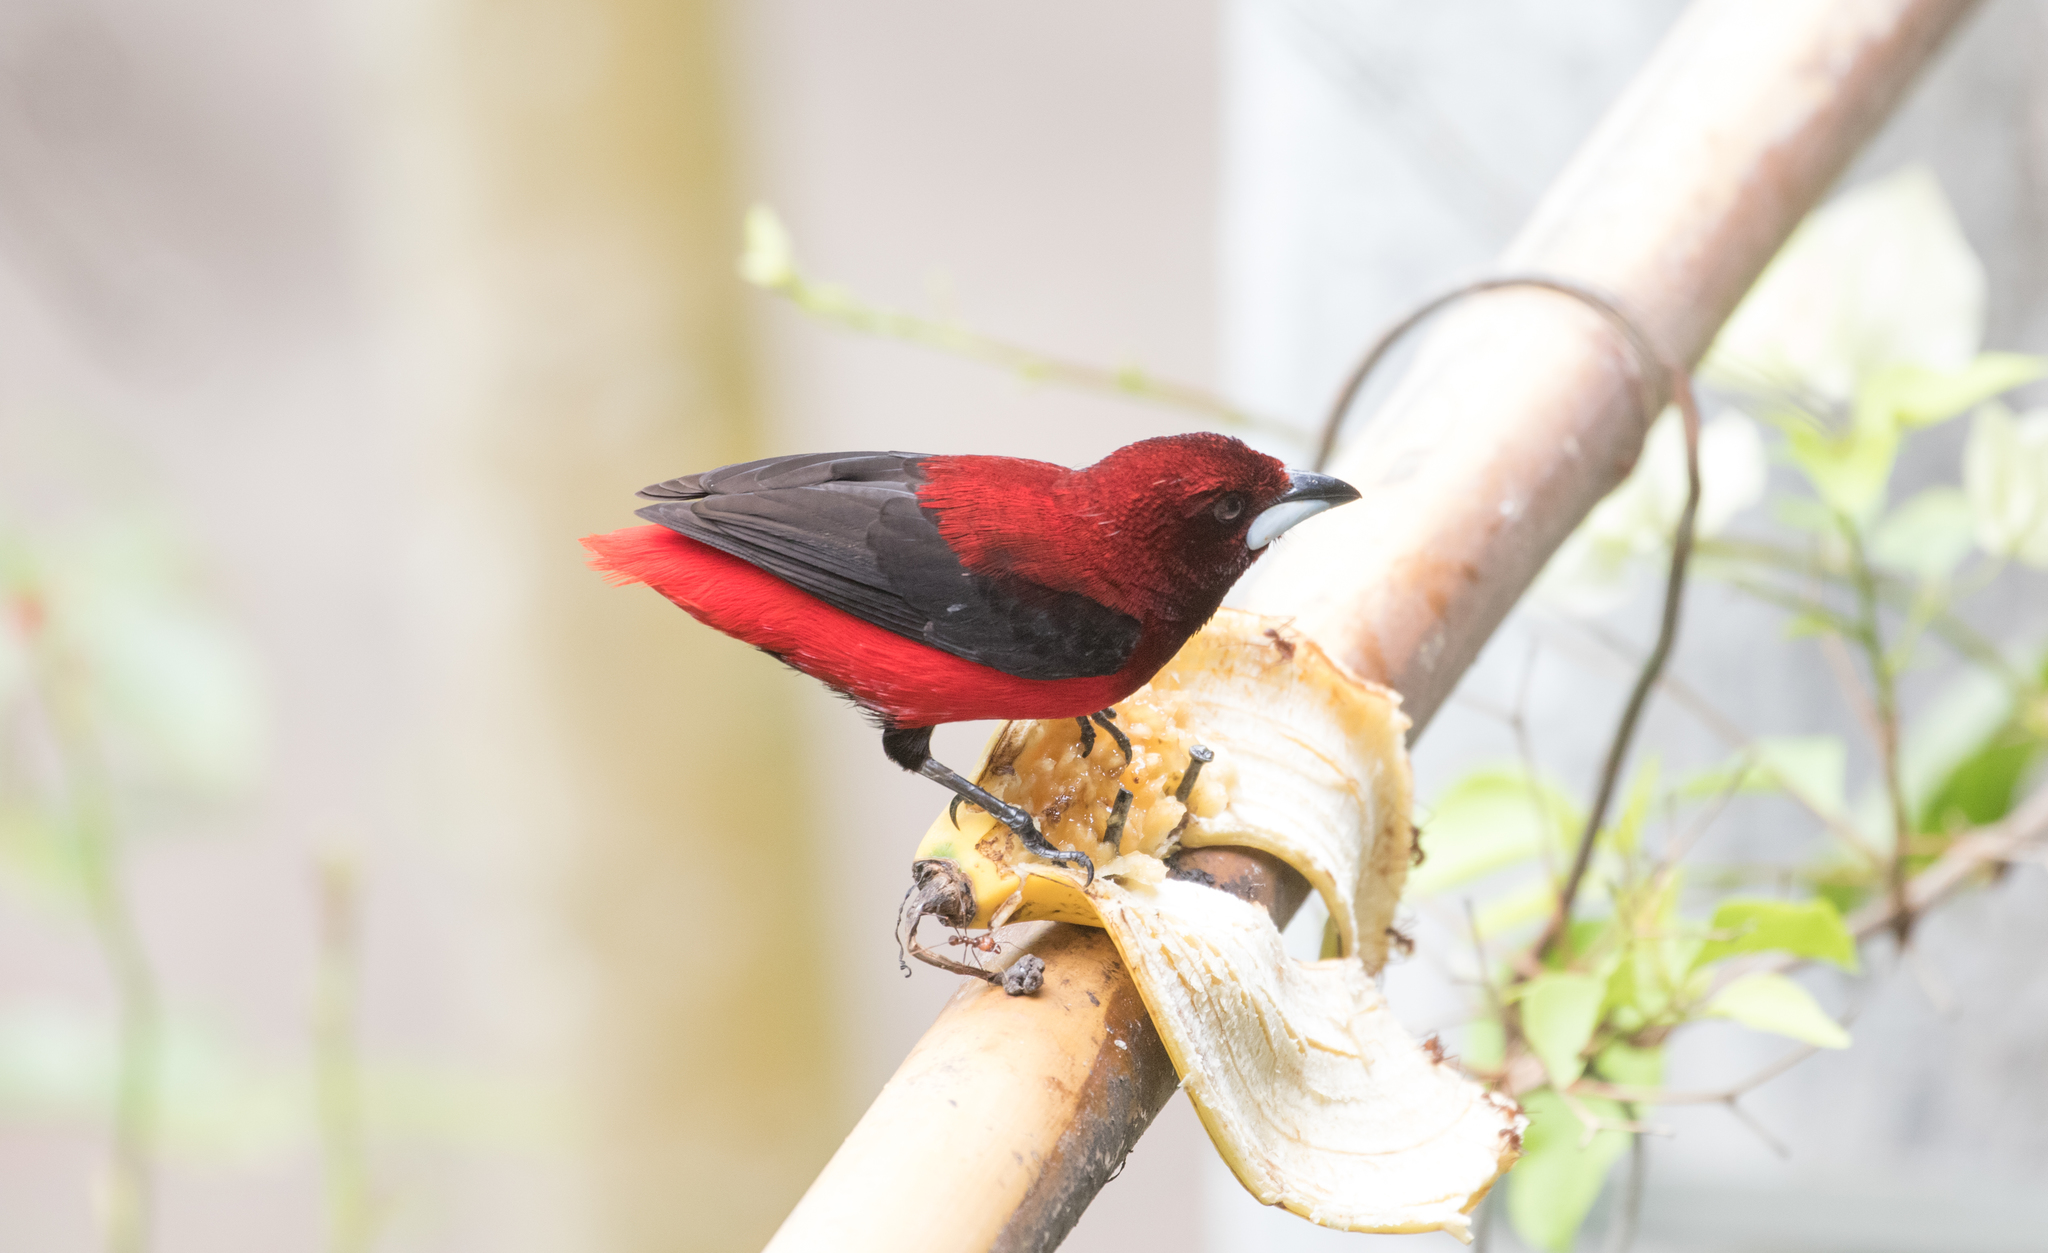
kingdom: Animalia
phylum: Chordata
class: Aves
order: Passeriformes
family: Thraupidae
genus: Ramphocelus
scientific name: Ramphocelus dimidiatus
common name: Crimson-backed tanager
